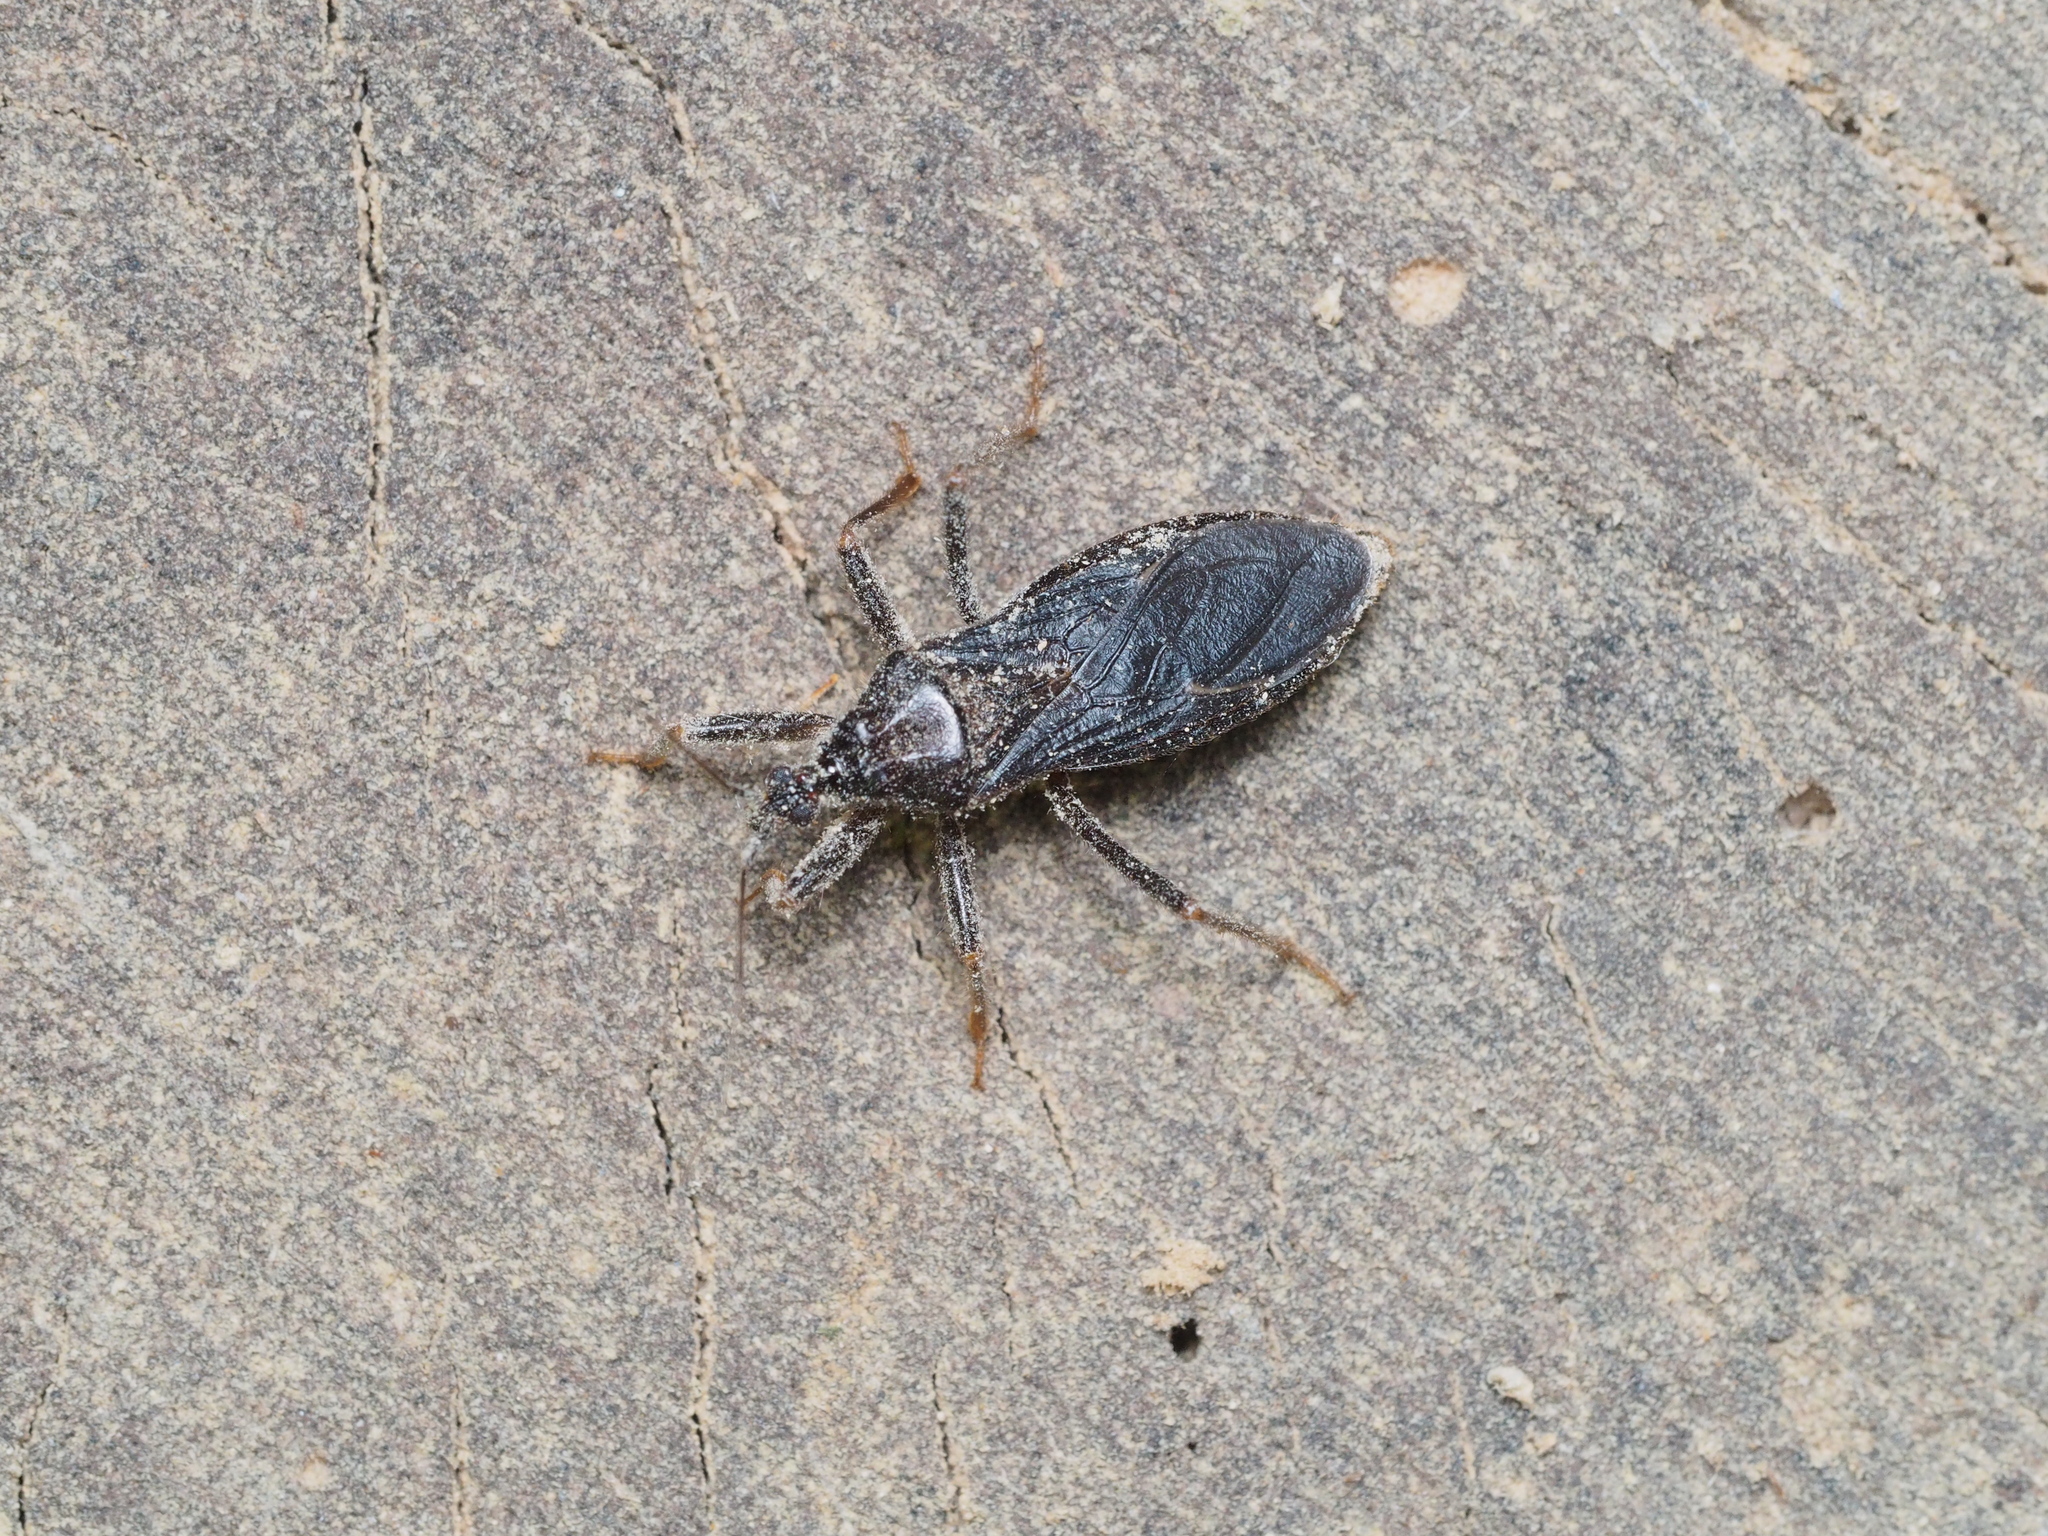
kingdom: Animalia
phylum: Arthropoda
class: Insecta
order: Hemiptera
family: Reduviidae
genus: Reduvius
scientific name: Reduvius personatus
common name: Masked hunter
